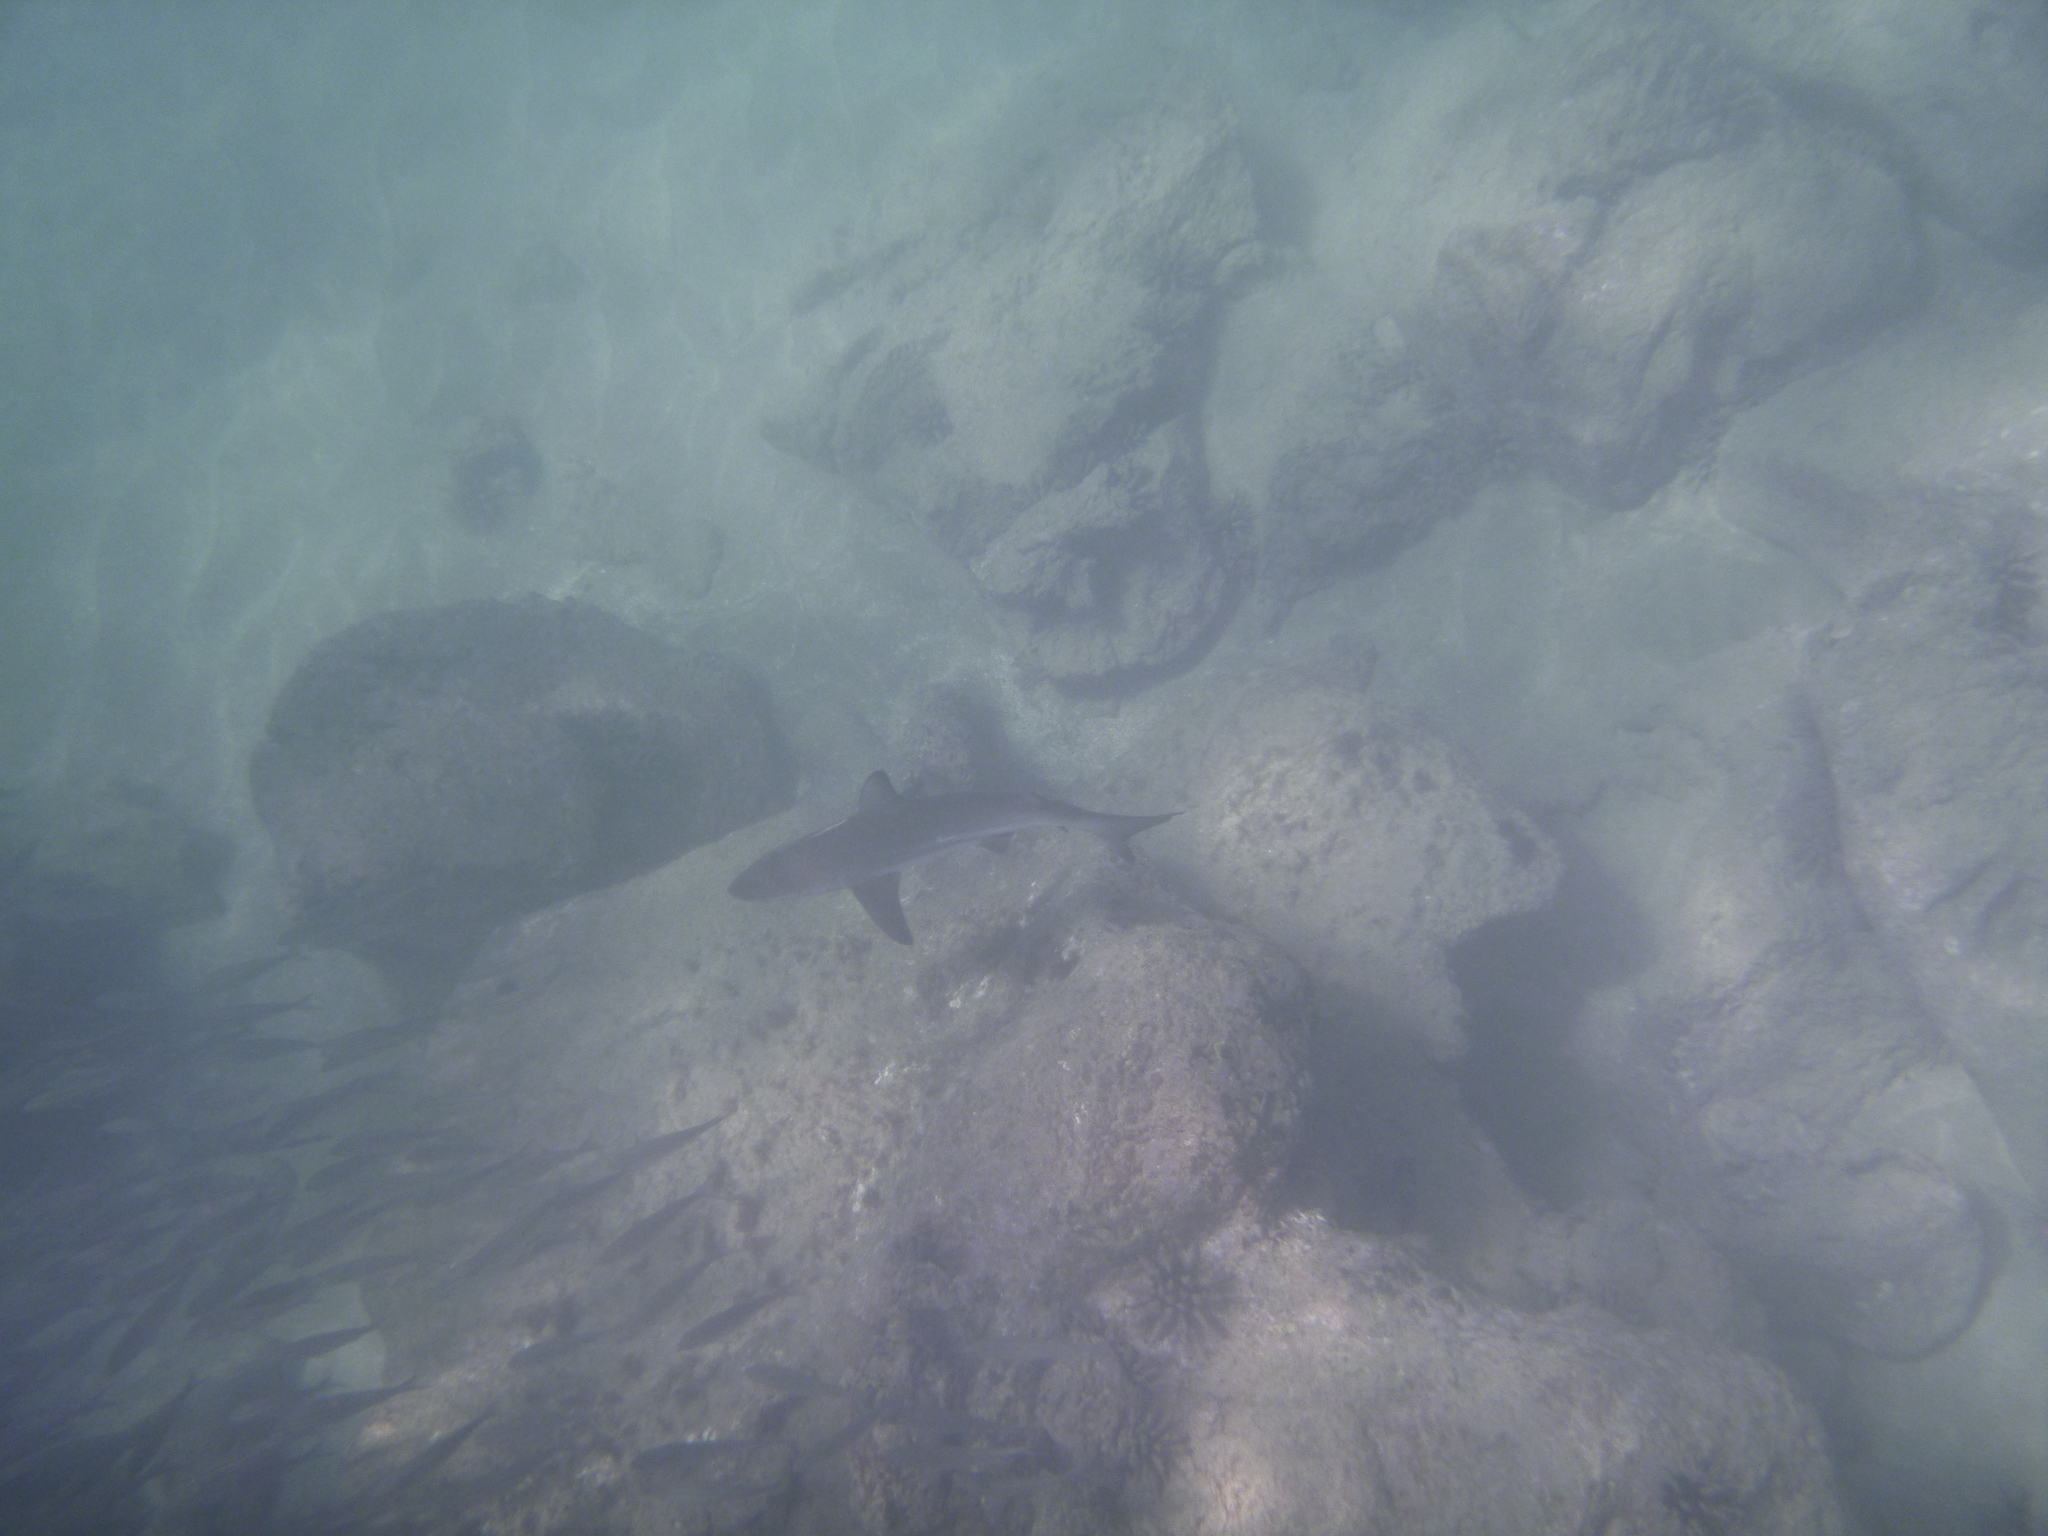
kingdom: Animalia
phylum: Chordata
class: Elasmobranchii
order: Carcharhiniformes
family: Carcharhinidae
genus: Carcharhinus
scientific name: Carcharhinus limbatus
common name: Blacktip shark
